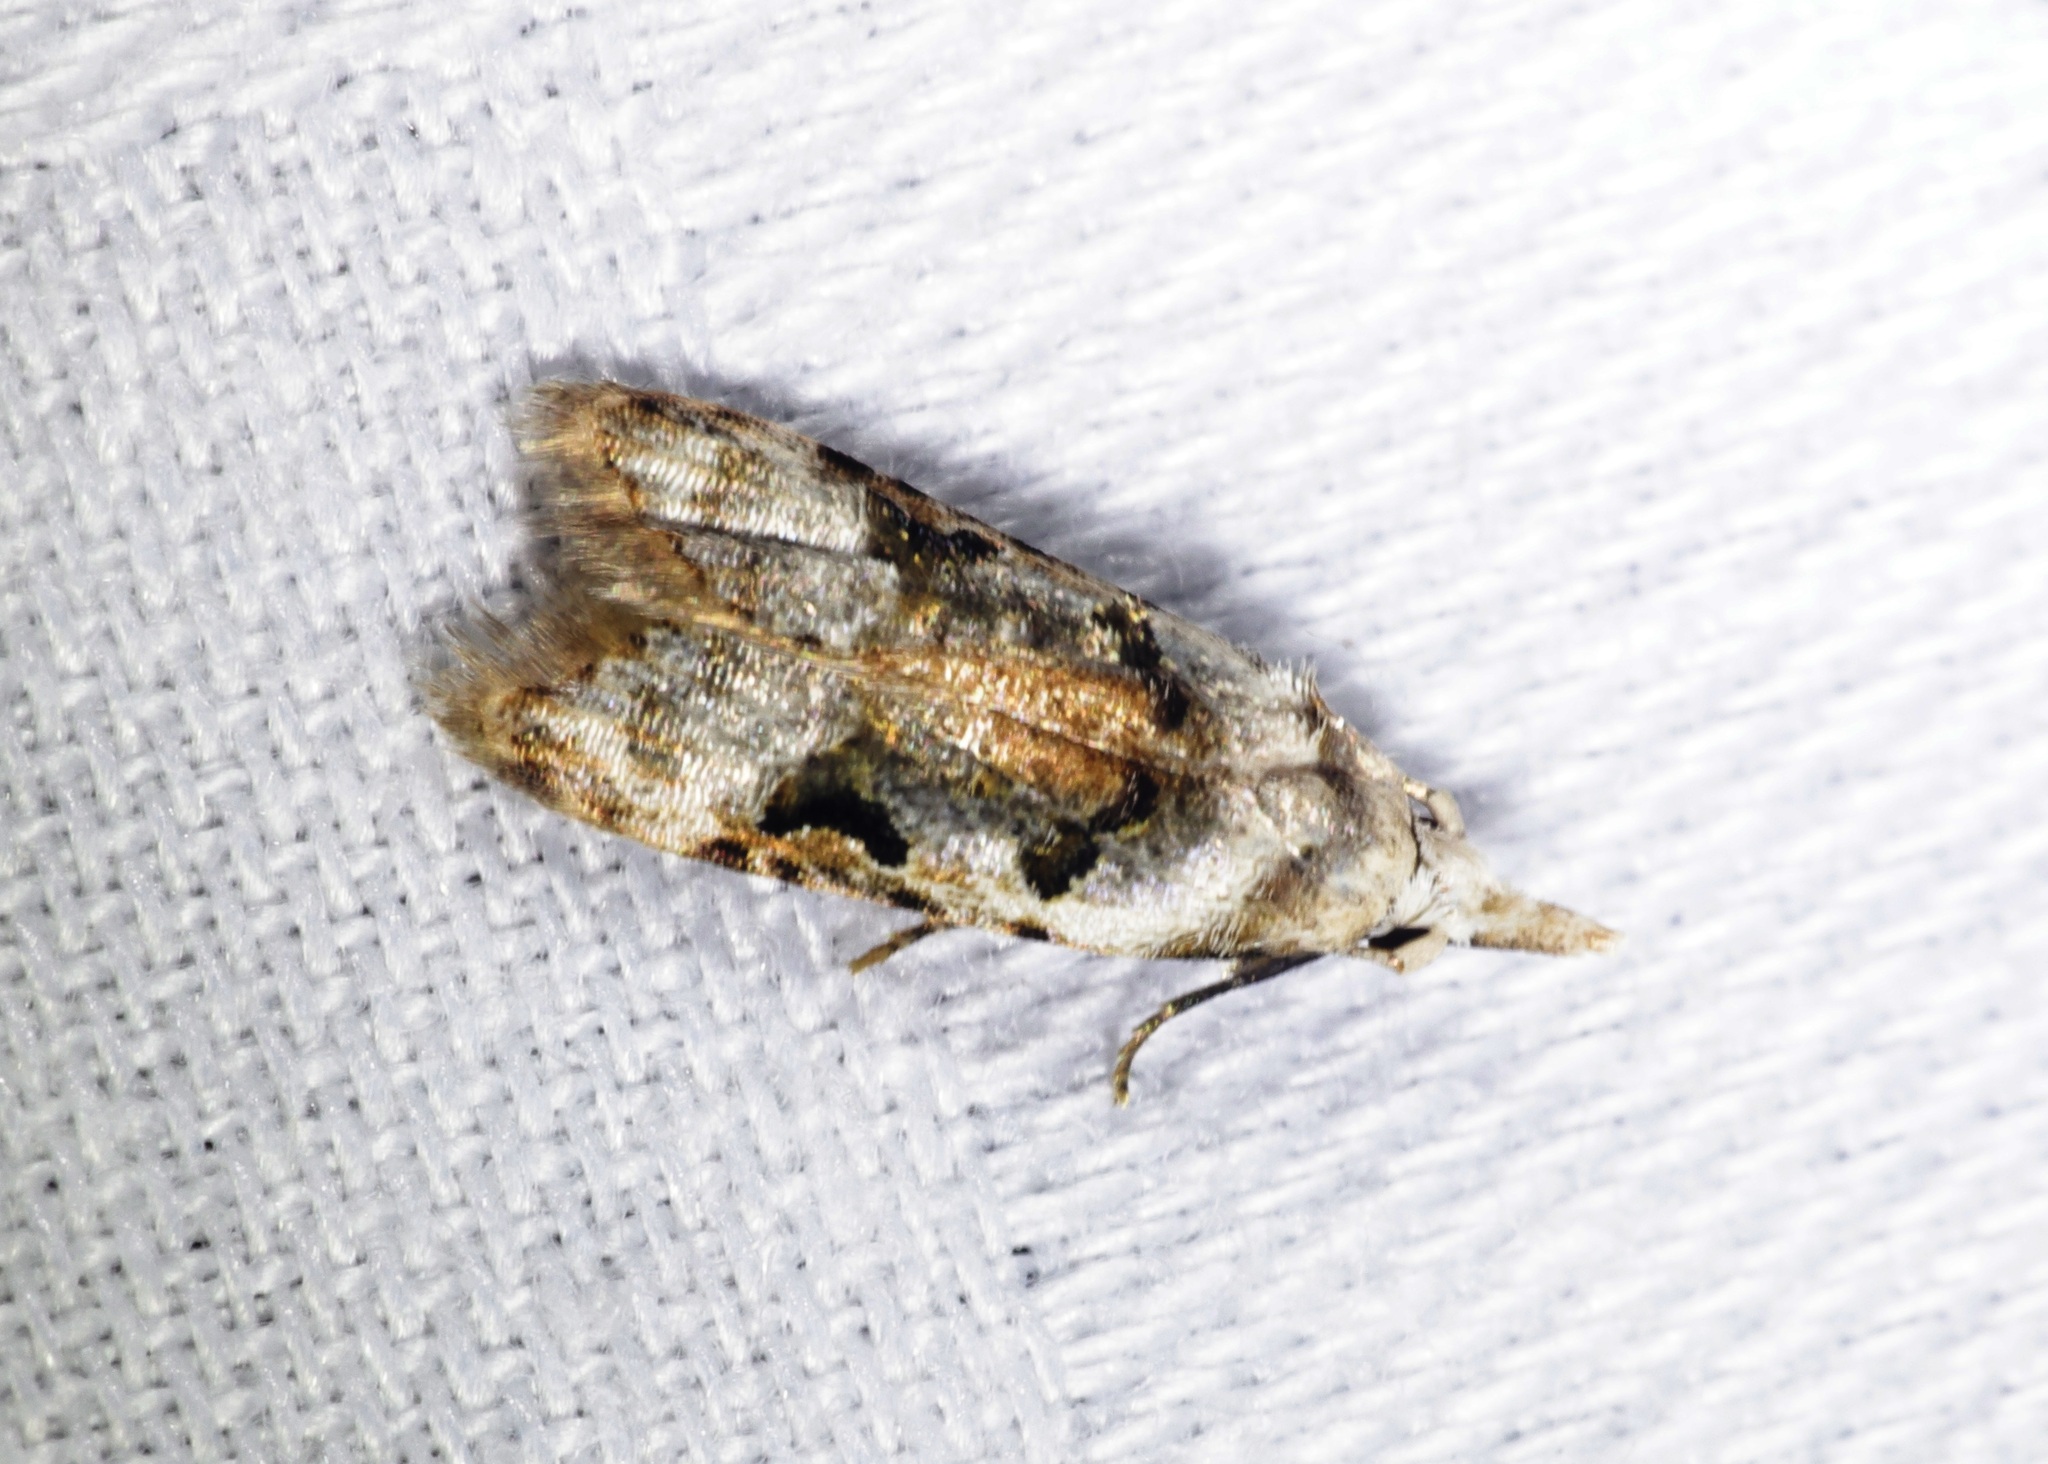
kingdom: Animalia
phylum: Arthropoda
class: Insecta
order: Lepidoptera
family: Carposinidae
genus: Metacosmesis
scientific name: Metacosmesis laxeuta
